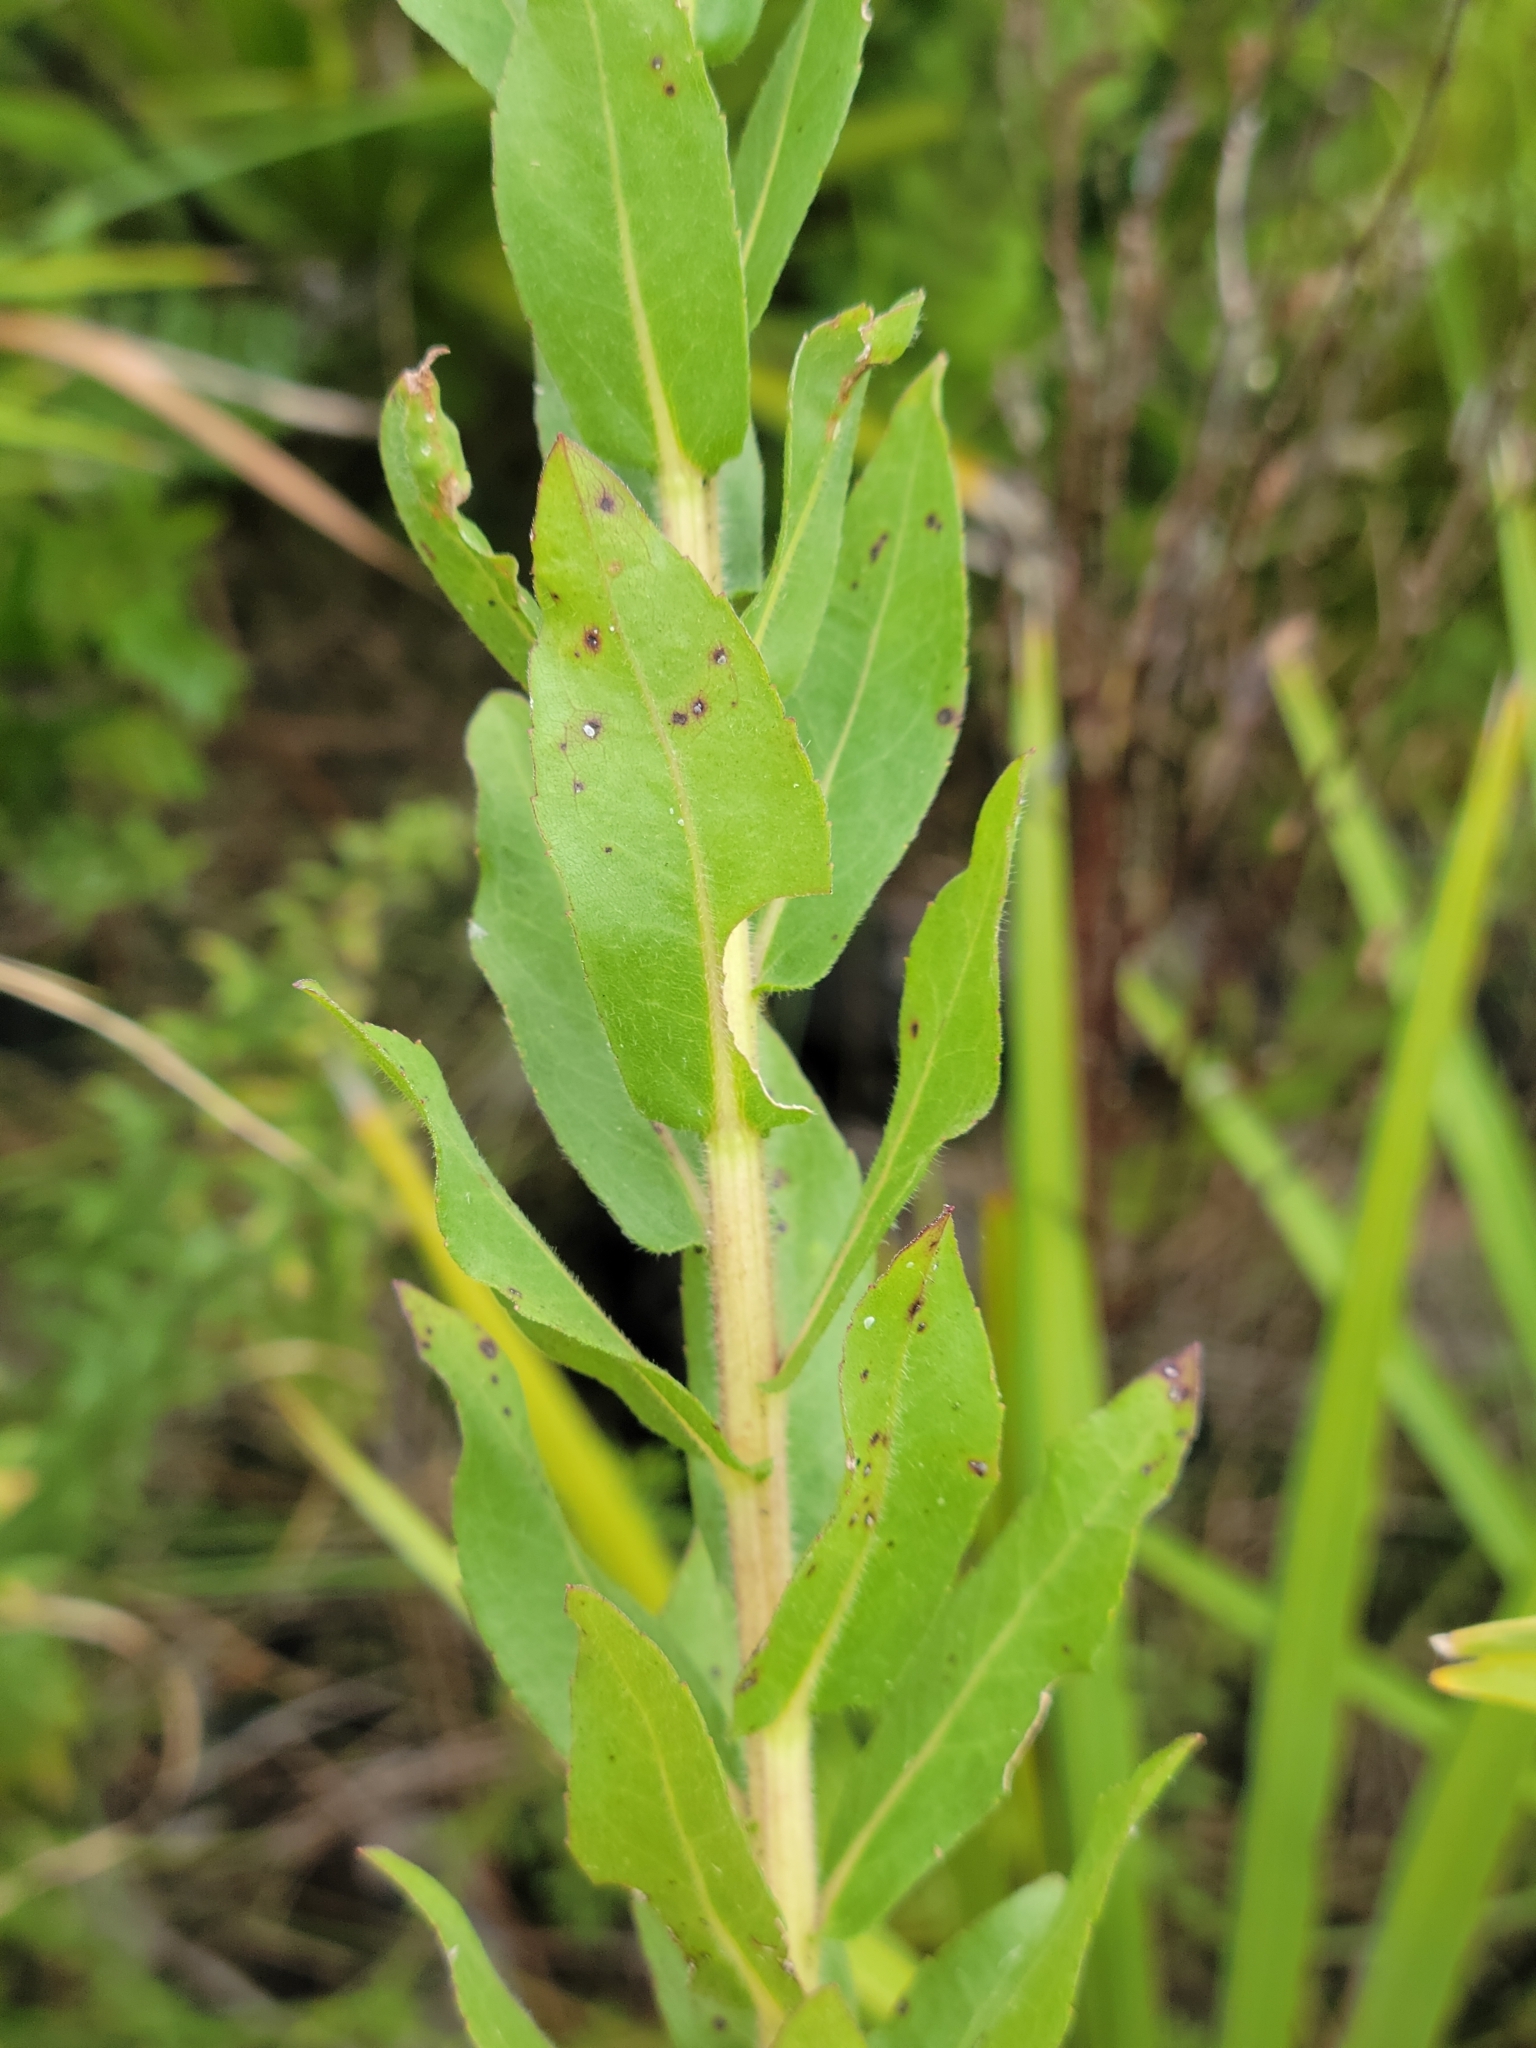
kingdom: Plantae
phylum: Tracheophyta
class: Magnoliopsida
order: Asterales
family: Asteraceae
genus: Solidago
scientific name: Solidago fistulosa
